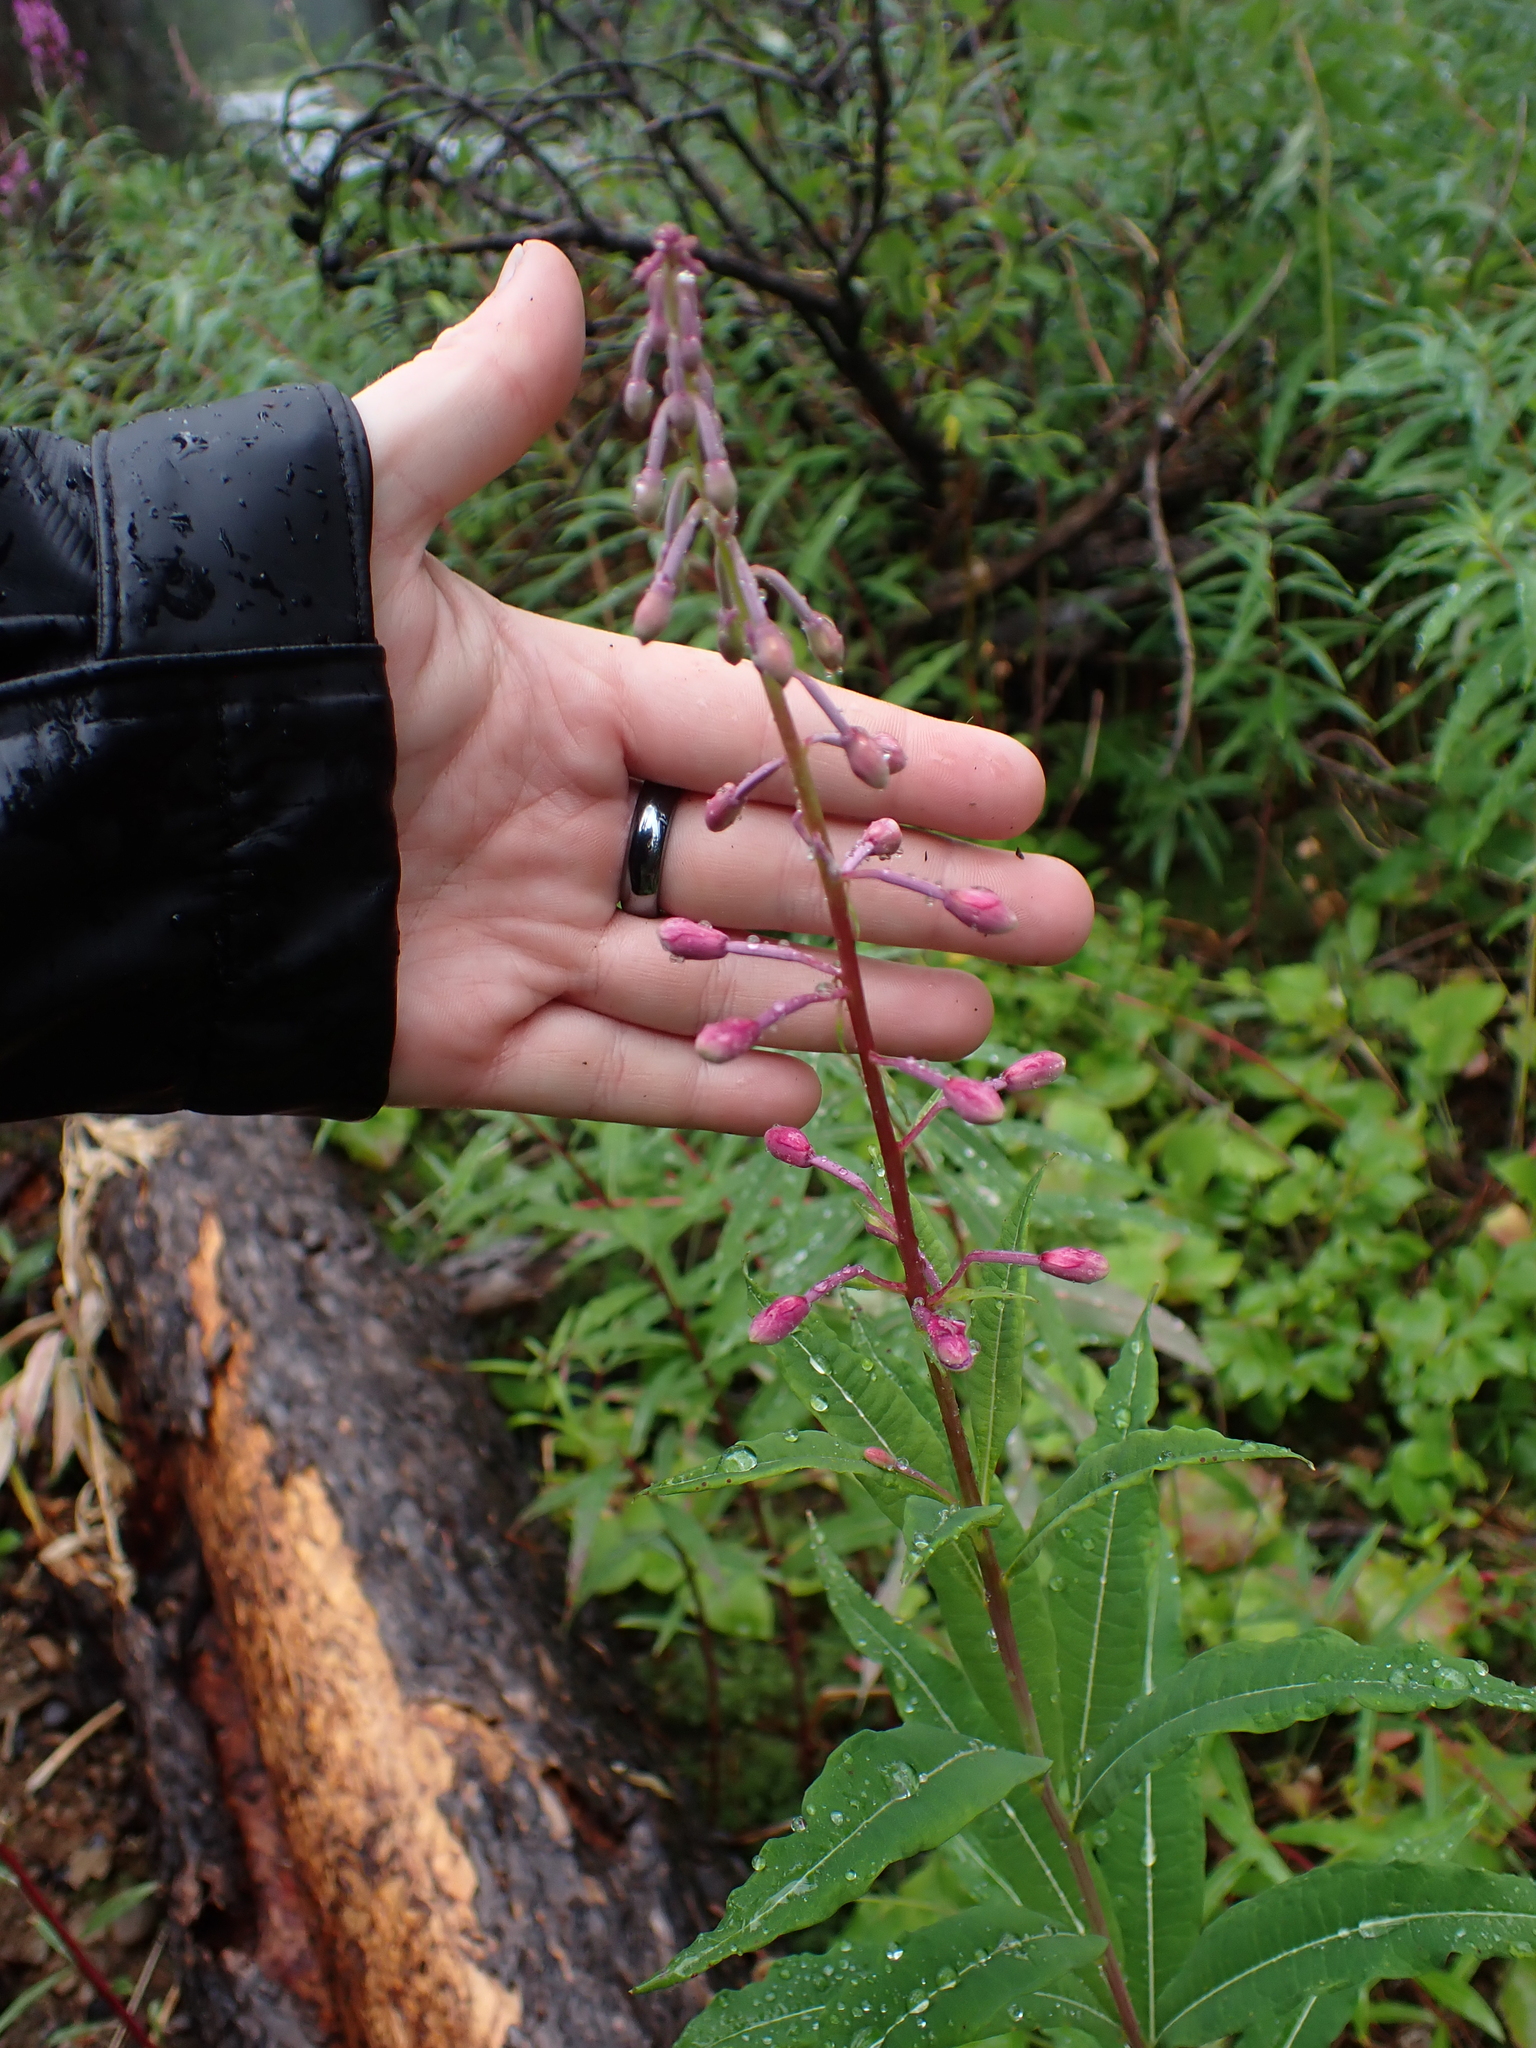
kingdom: Plantae
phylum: Tracheophyta
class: Magnoliopsida
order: Myrtales
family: Onagraceae
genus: Chamaenerion
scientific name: Chamaenerion angustifolium
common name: Fireweed
